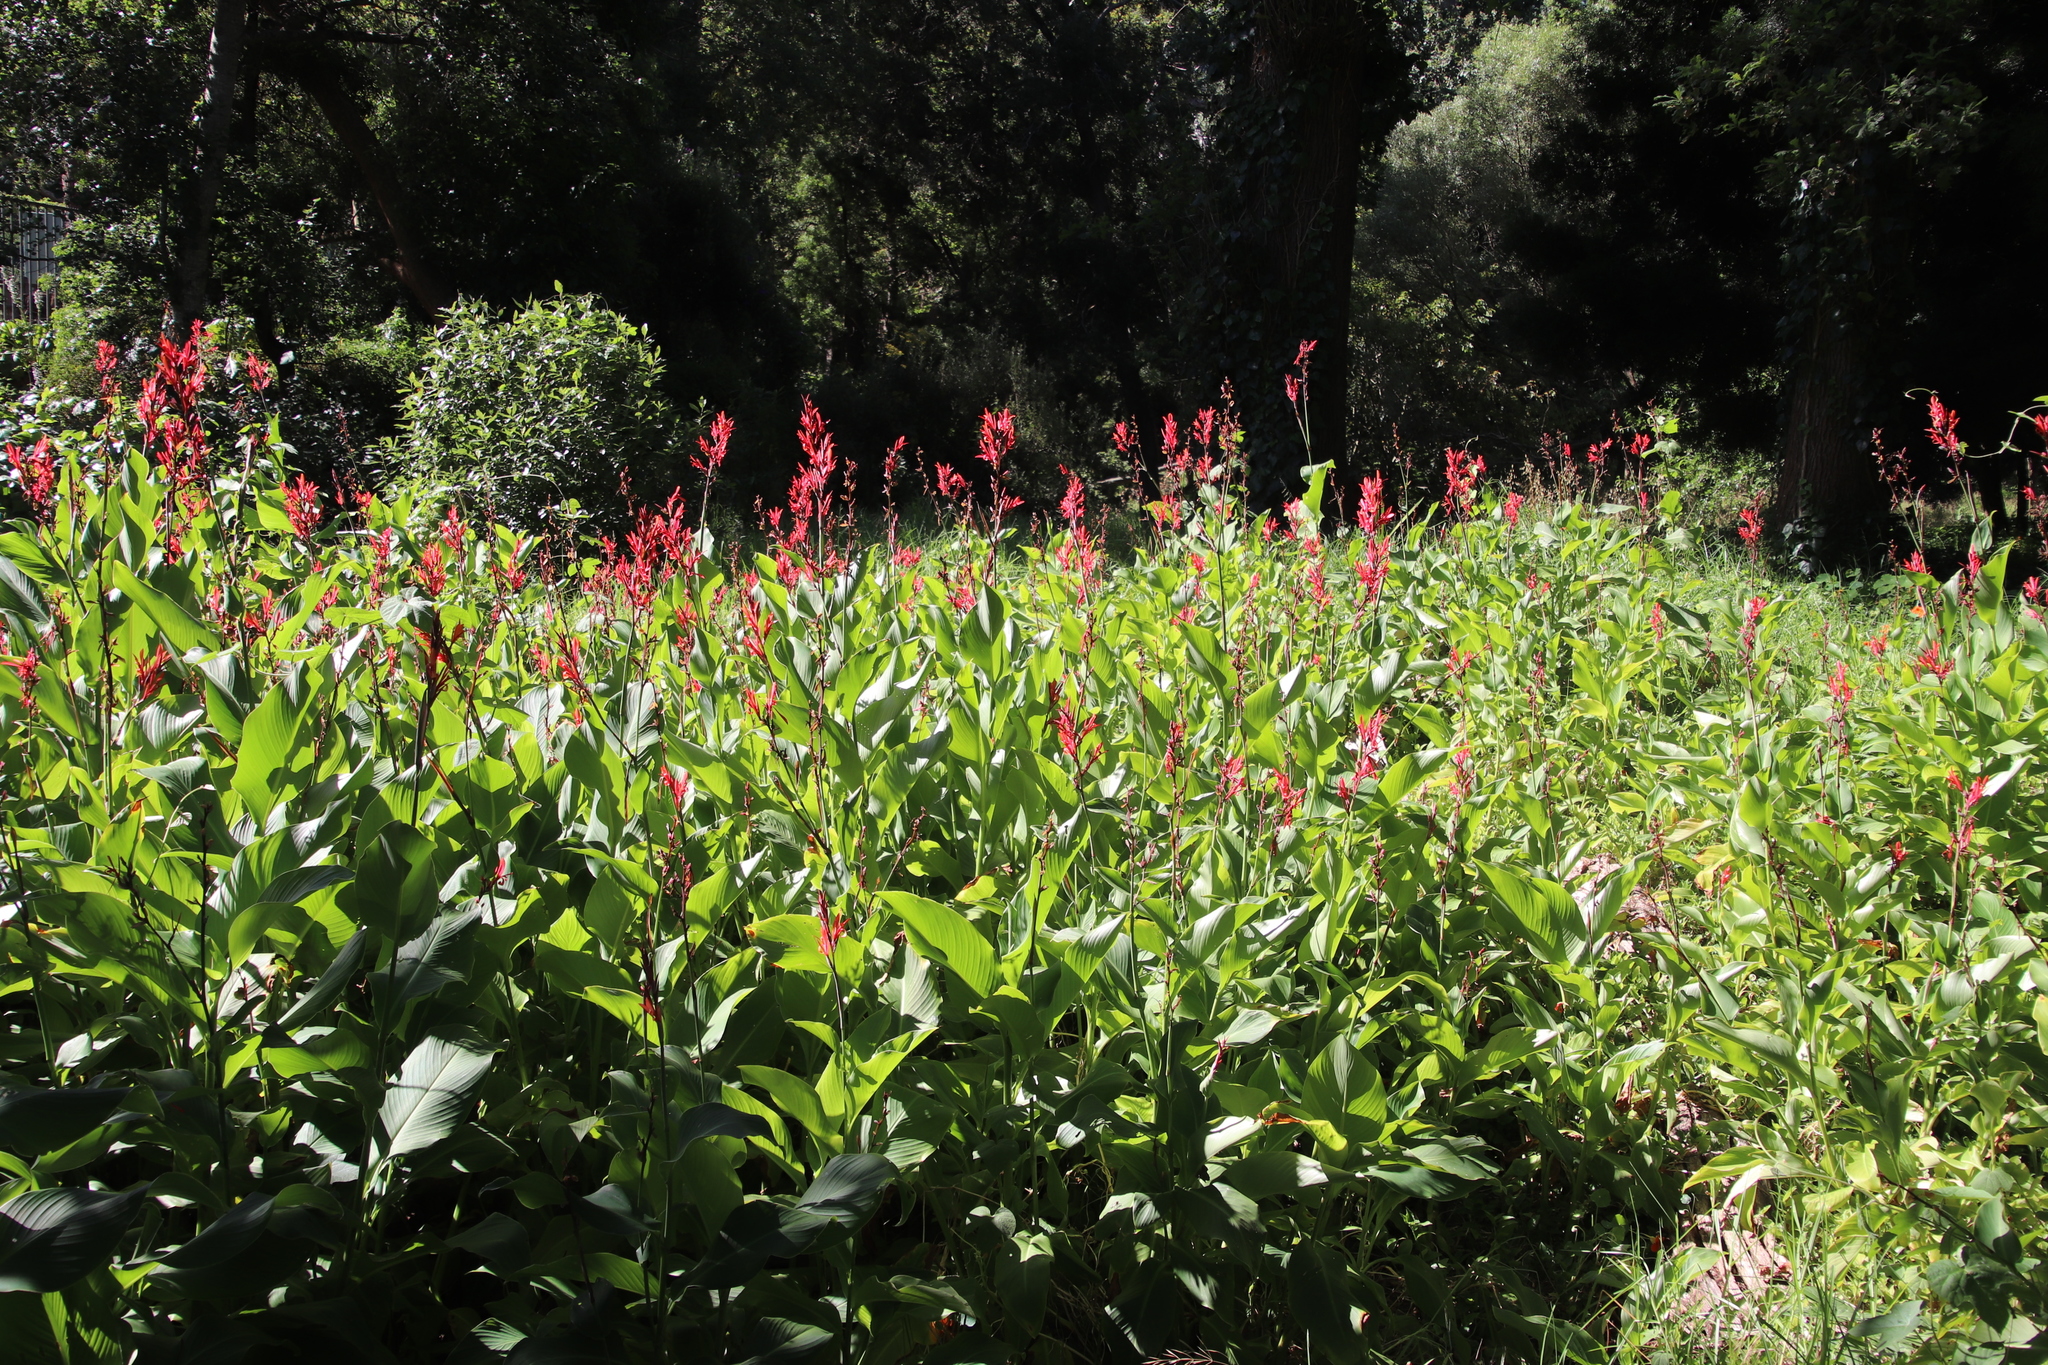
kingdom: Plantae
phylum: Tracheophyta
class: Liliopsida
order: Zingiberales
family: Cannaceae
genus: Canna
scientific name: Canna indica
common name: Indian shot
